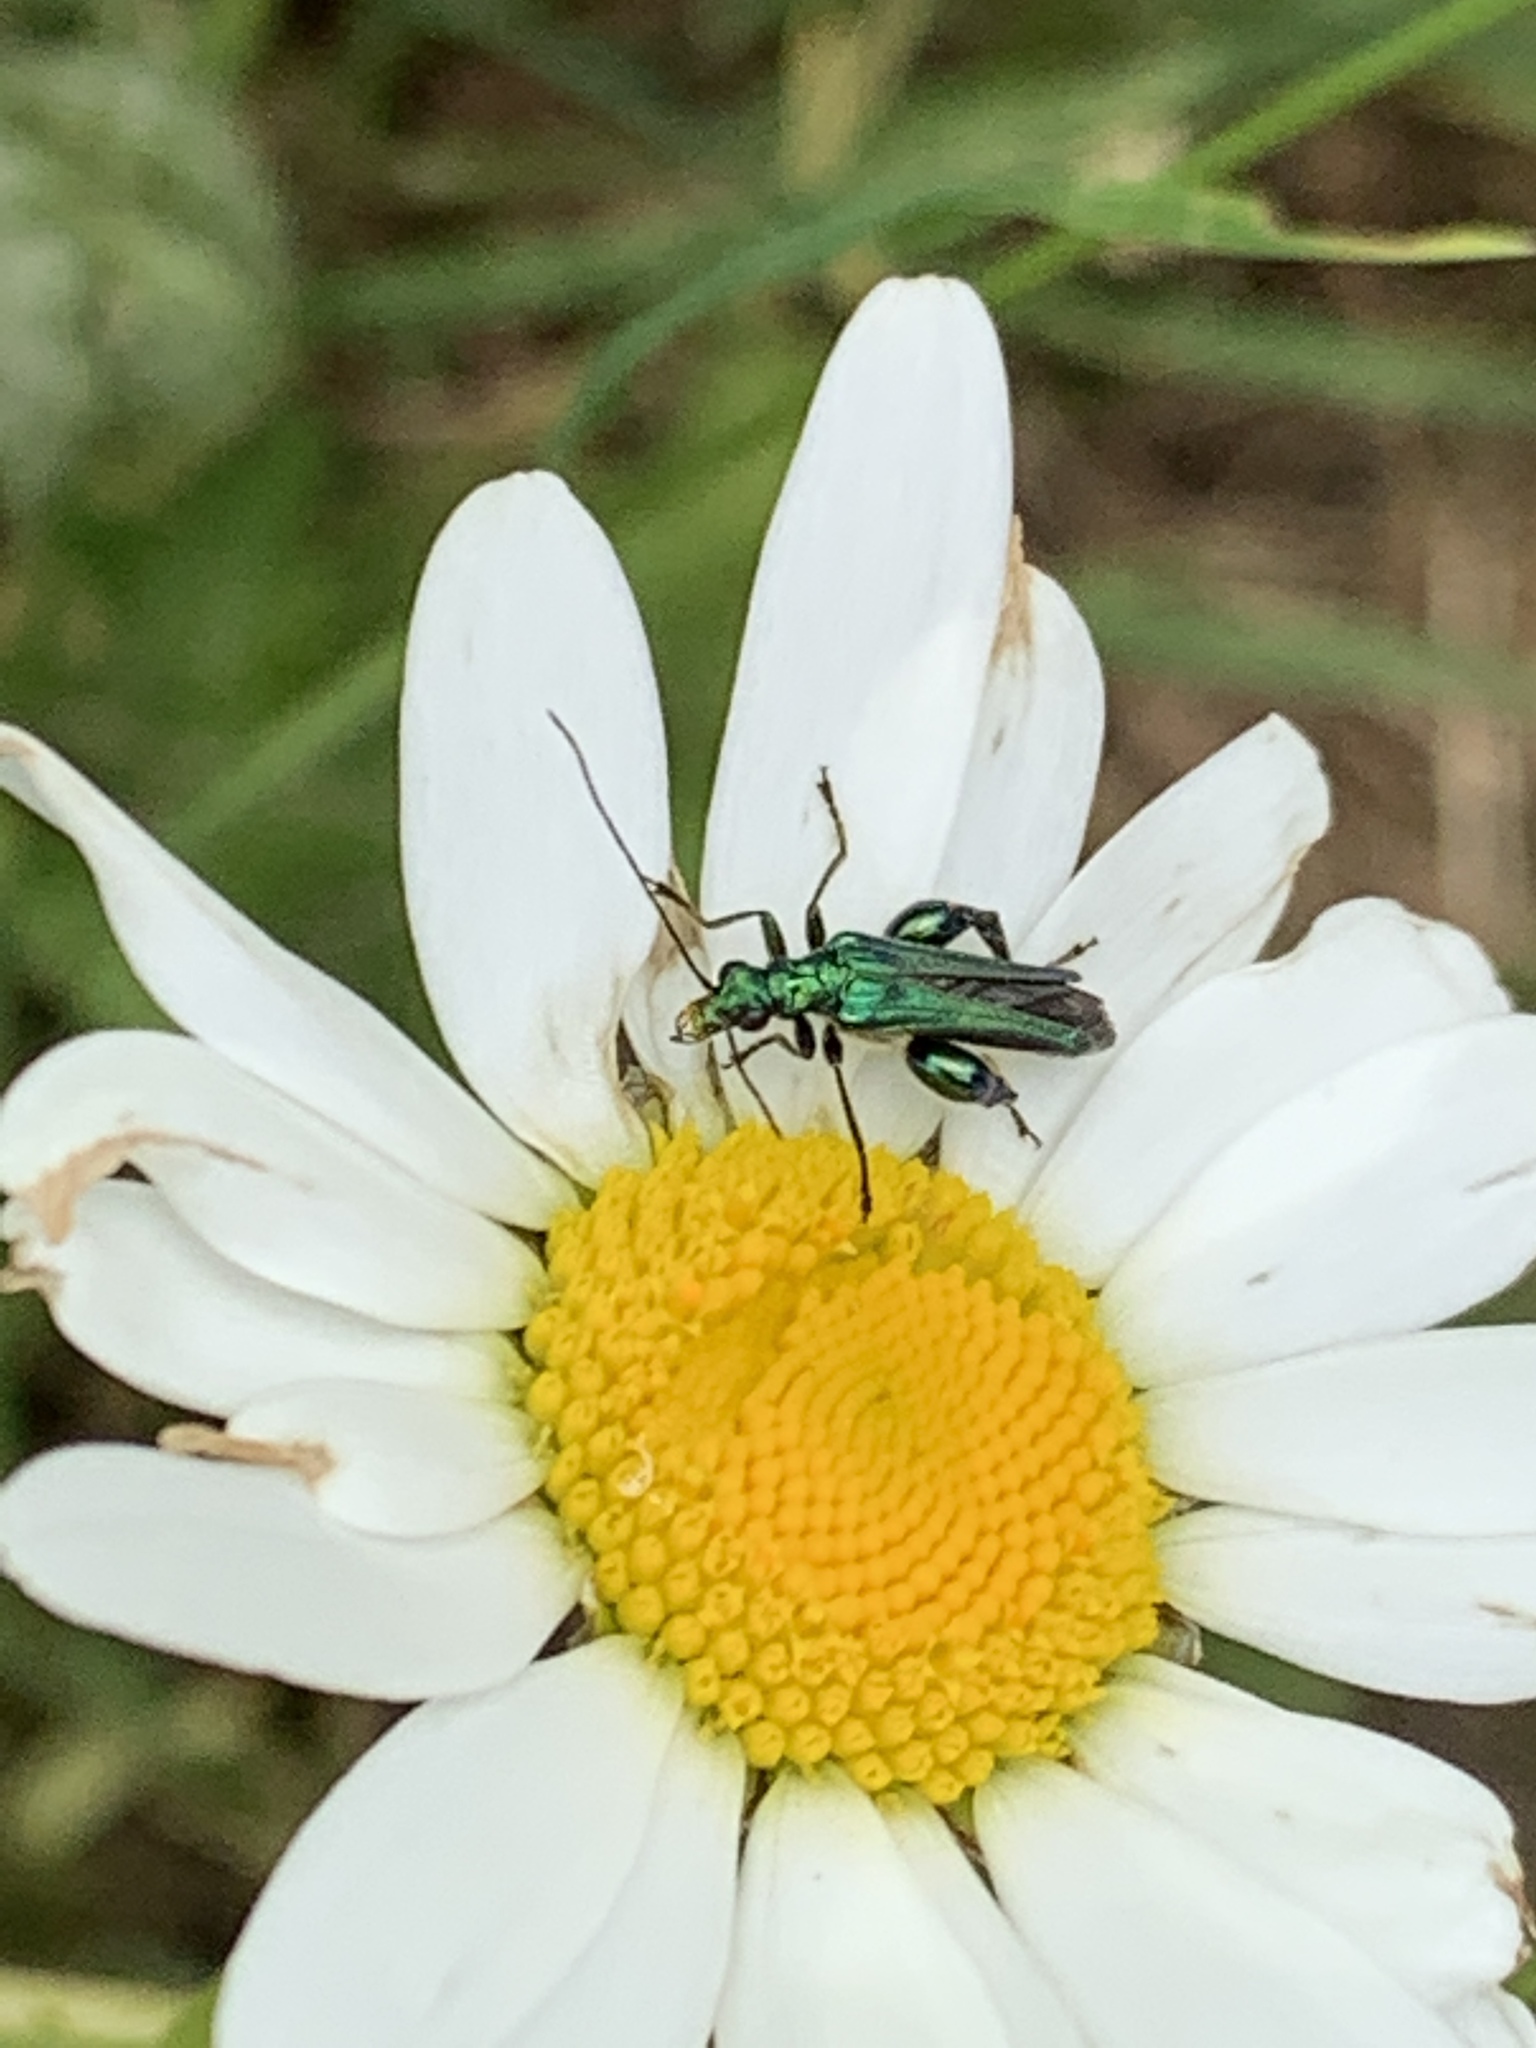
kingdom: Animalia
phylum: Arthropoda
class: Insecta
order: Coleoptera
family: Oedemeridae
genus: Oedemera
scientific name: Oedemera nobilis
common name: Swollen-thighed beetle
